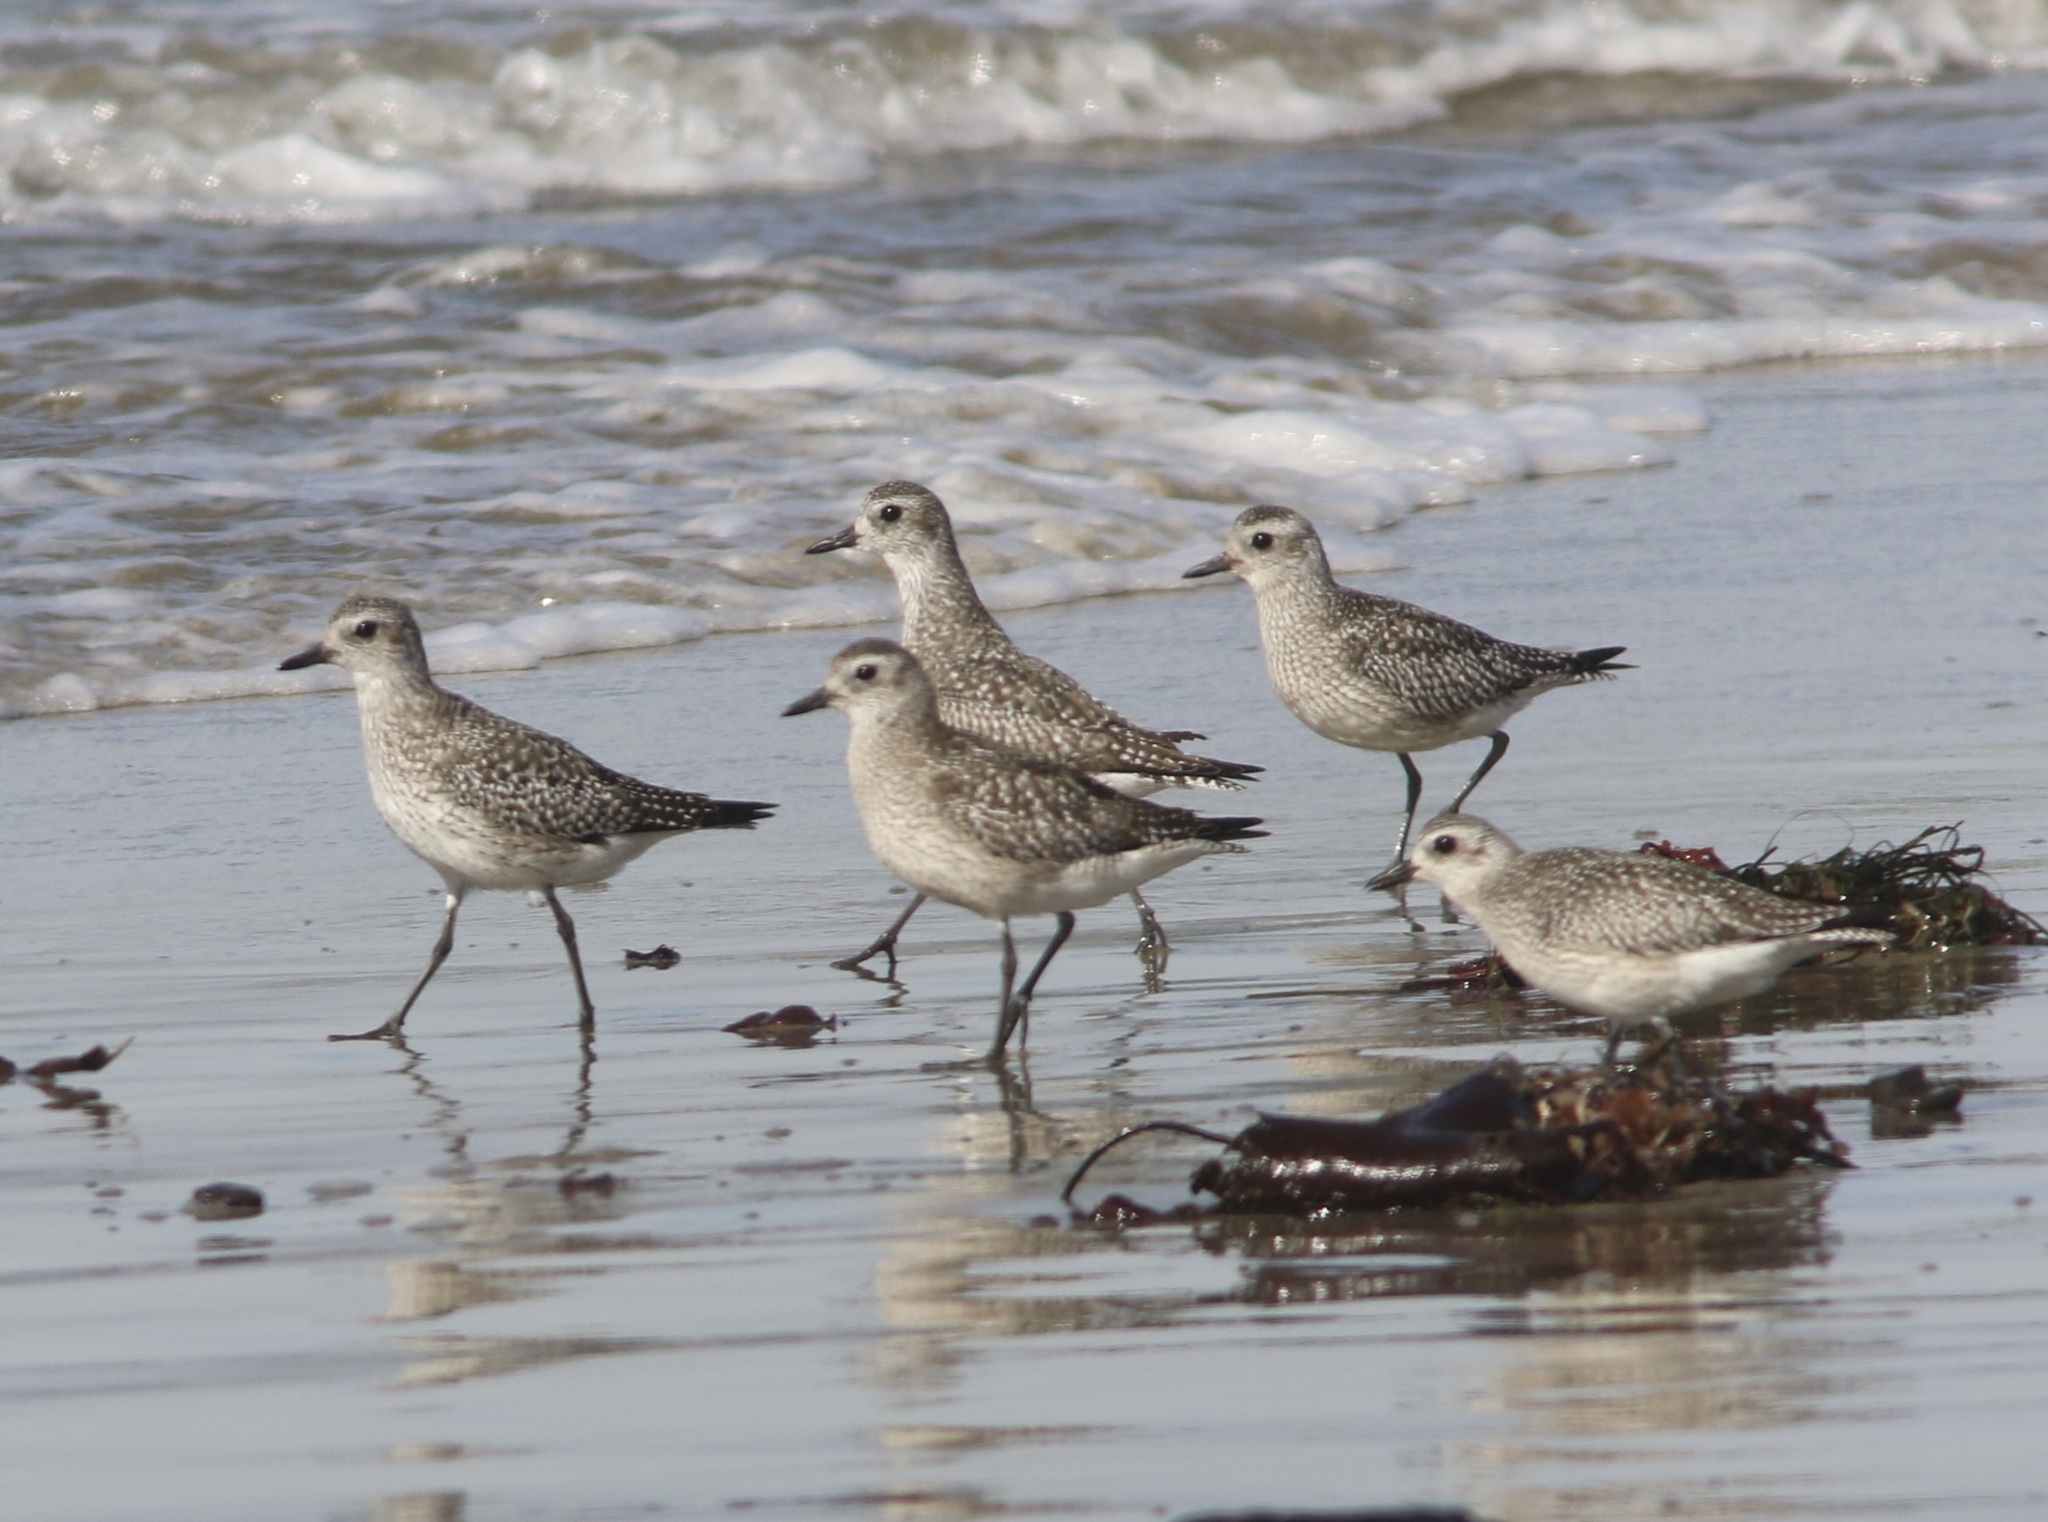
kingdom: Animalia
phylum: Chordata
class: Aves
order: Charadriiformes
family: Charadriidae
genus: Pluvialis
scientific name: Pluvialis squatarola
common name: Grey plover
